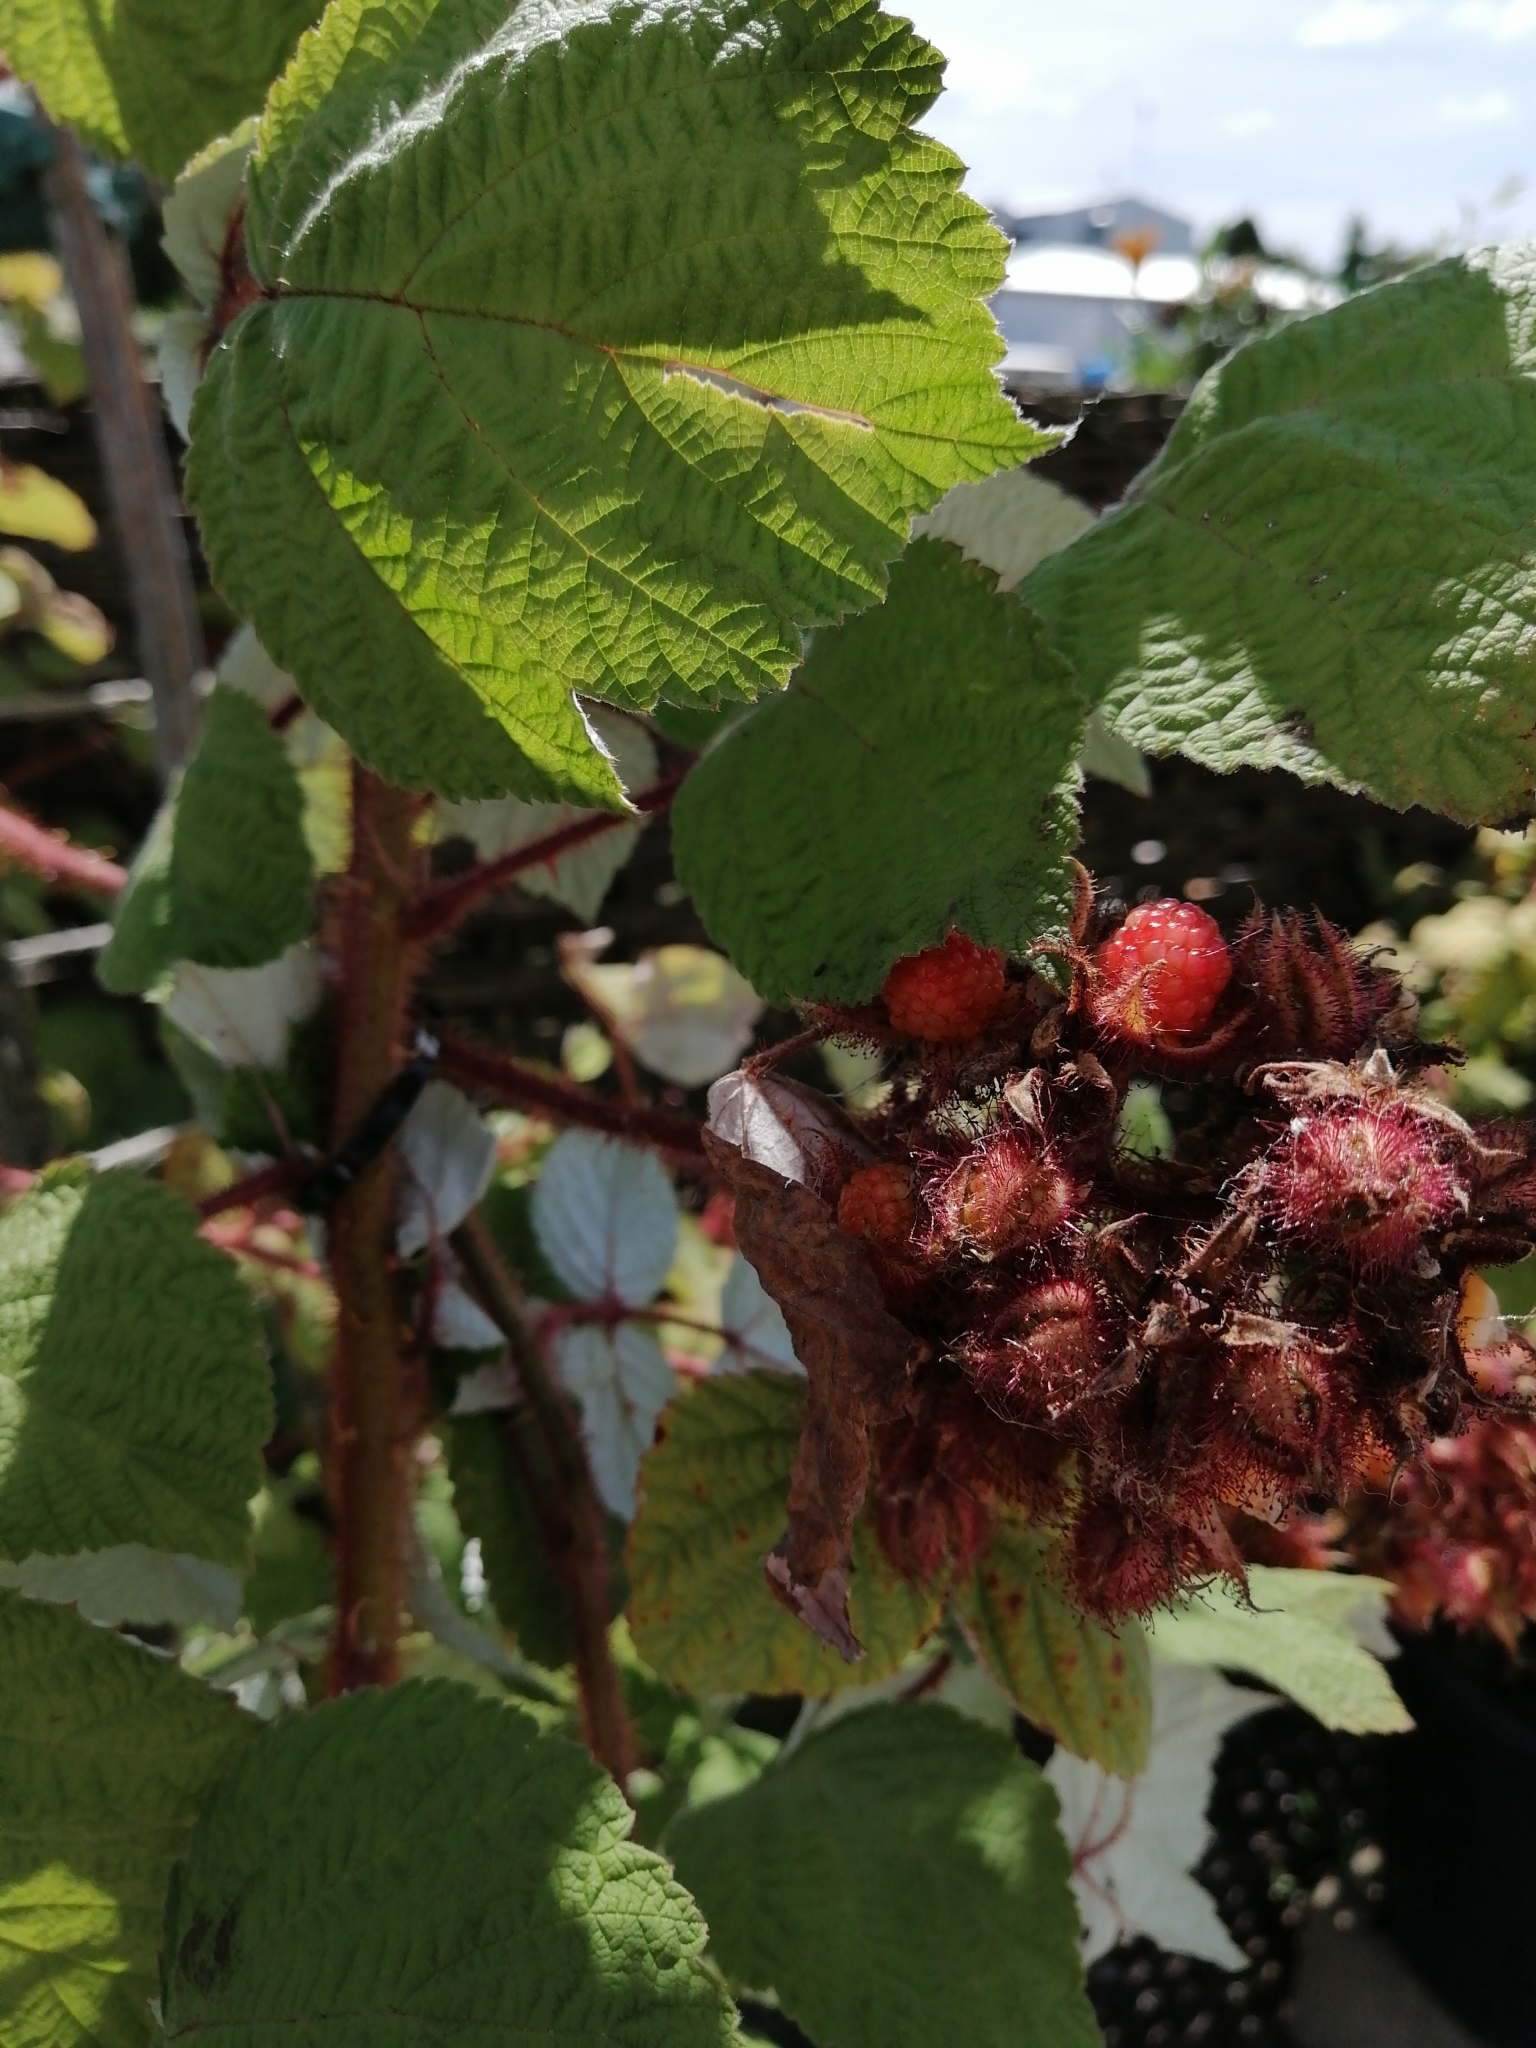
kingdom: Plantae
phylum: Tracheophyta
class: Magnoliopsida
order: Rosales
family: Rosaceae
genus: Rubus
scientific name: Rubus phoenicolasius
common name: Japanese wineberry
